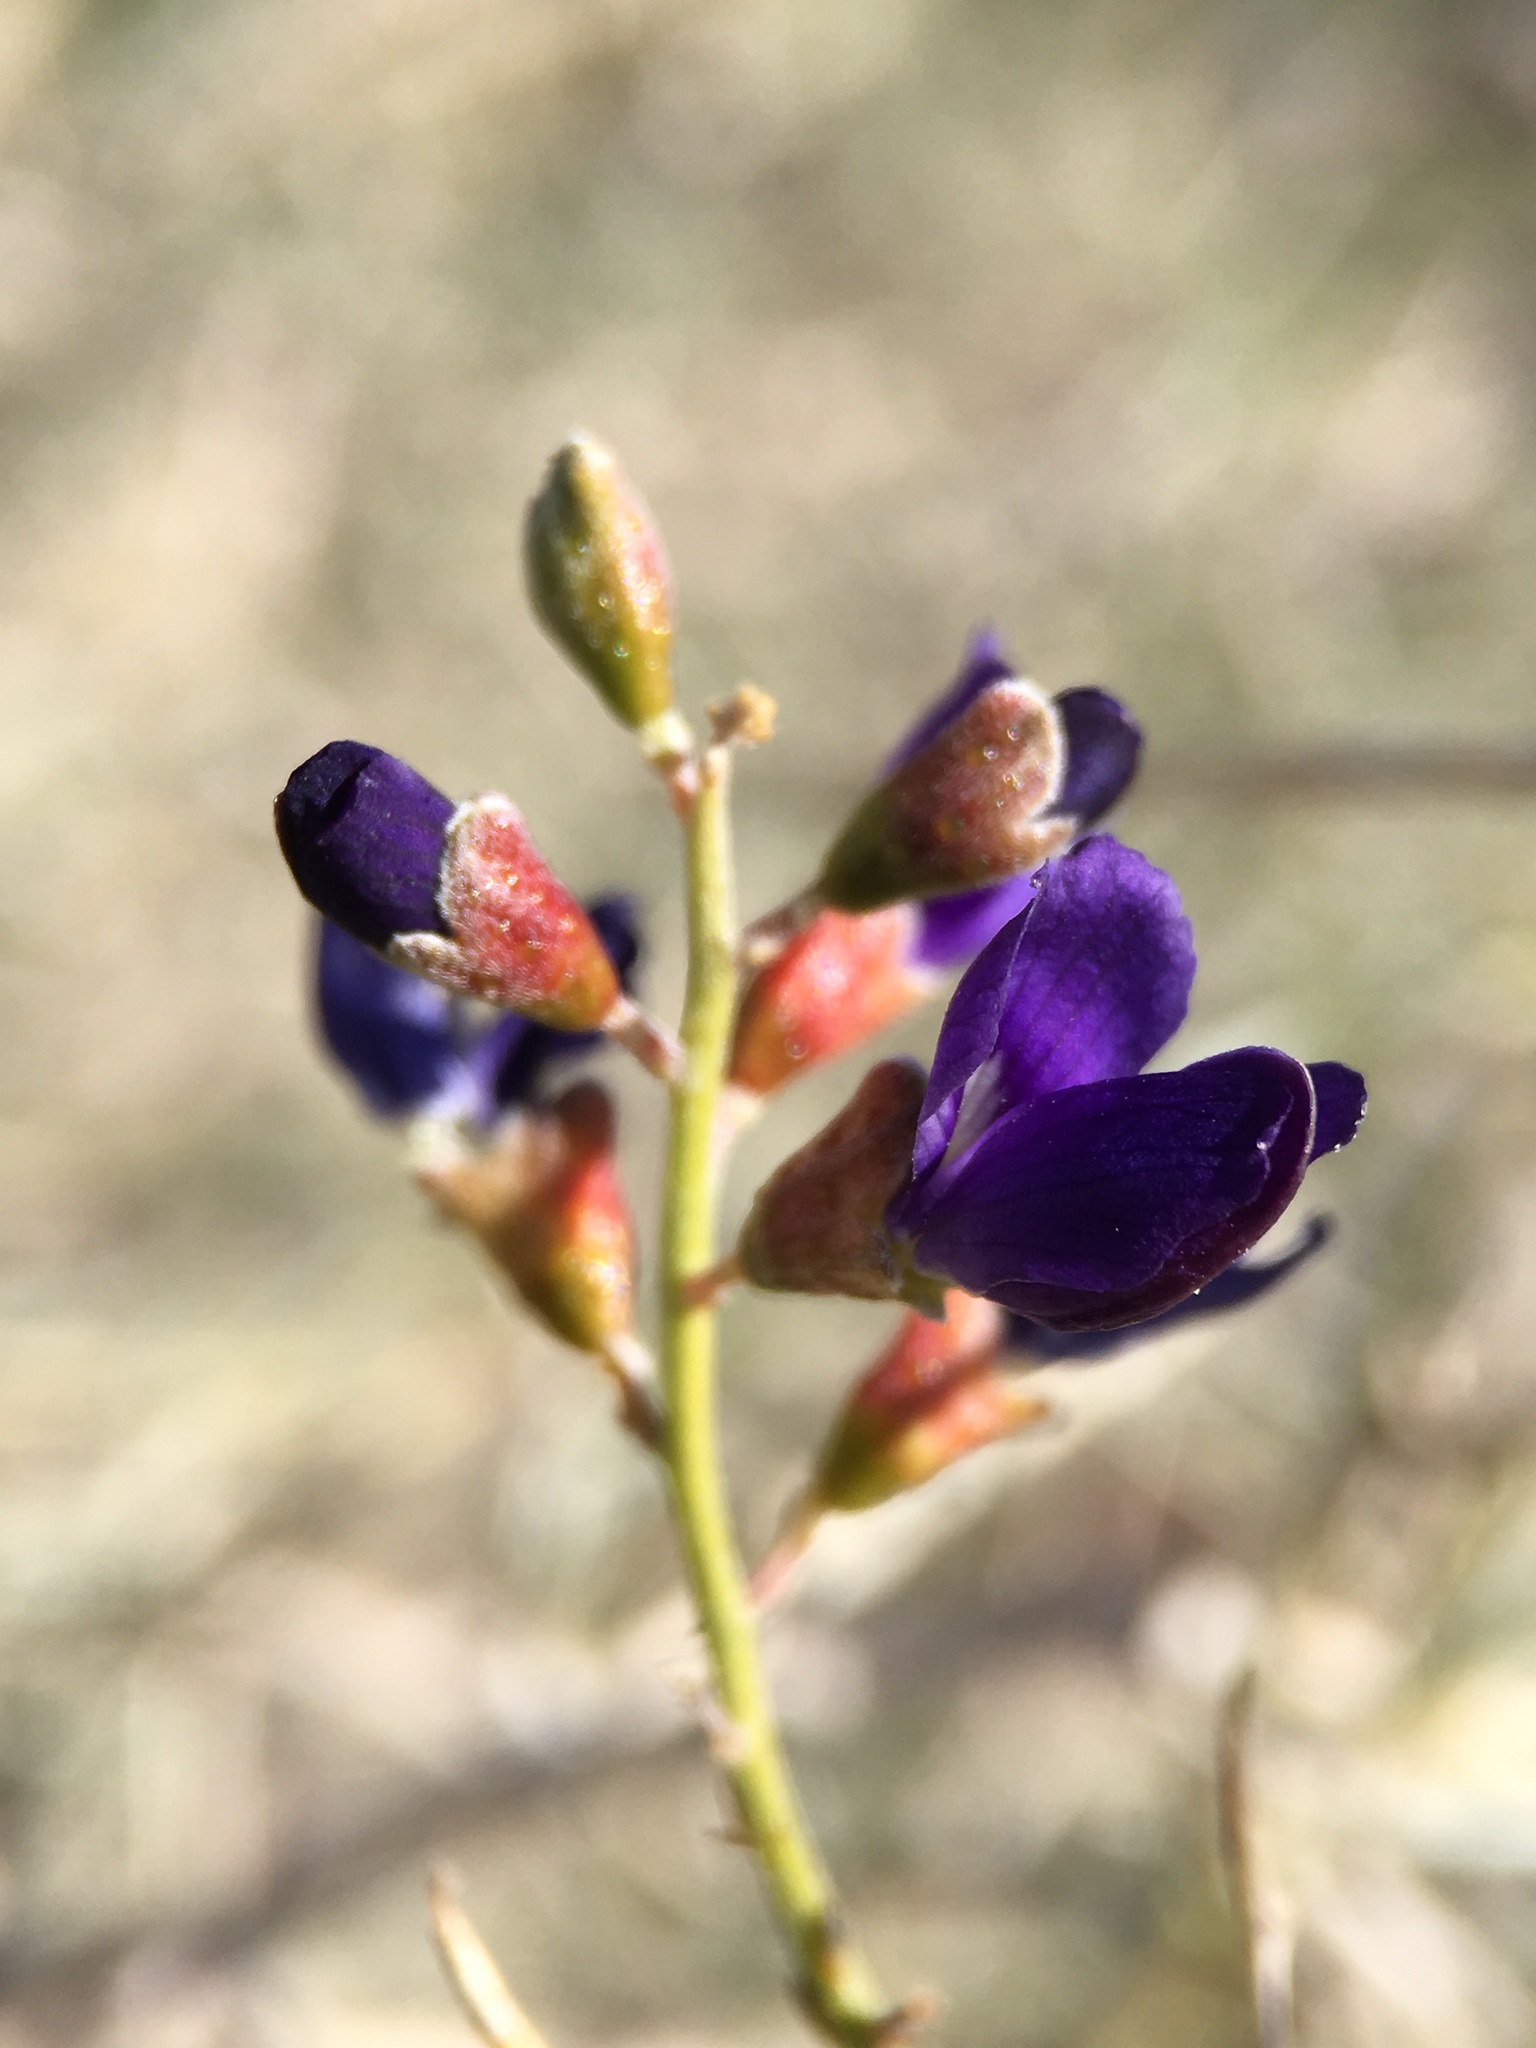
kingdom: Plantae
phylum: Tracheophyta
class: Magnoliopsida
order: Fabales
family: Fabaceae
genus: Psorothamnus
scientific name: Psorothamnus schottii
